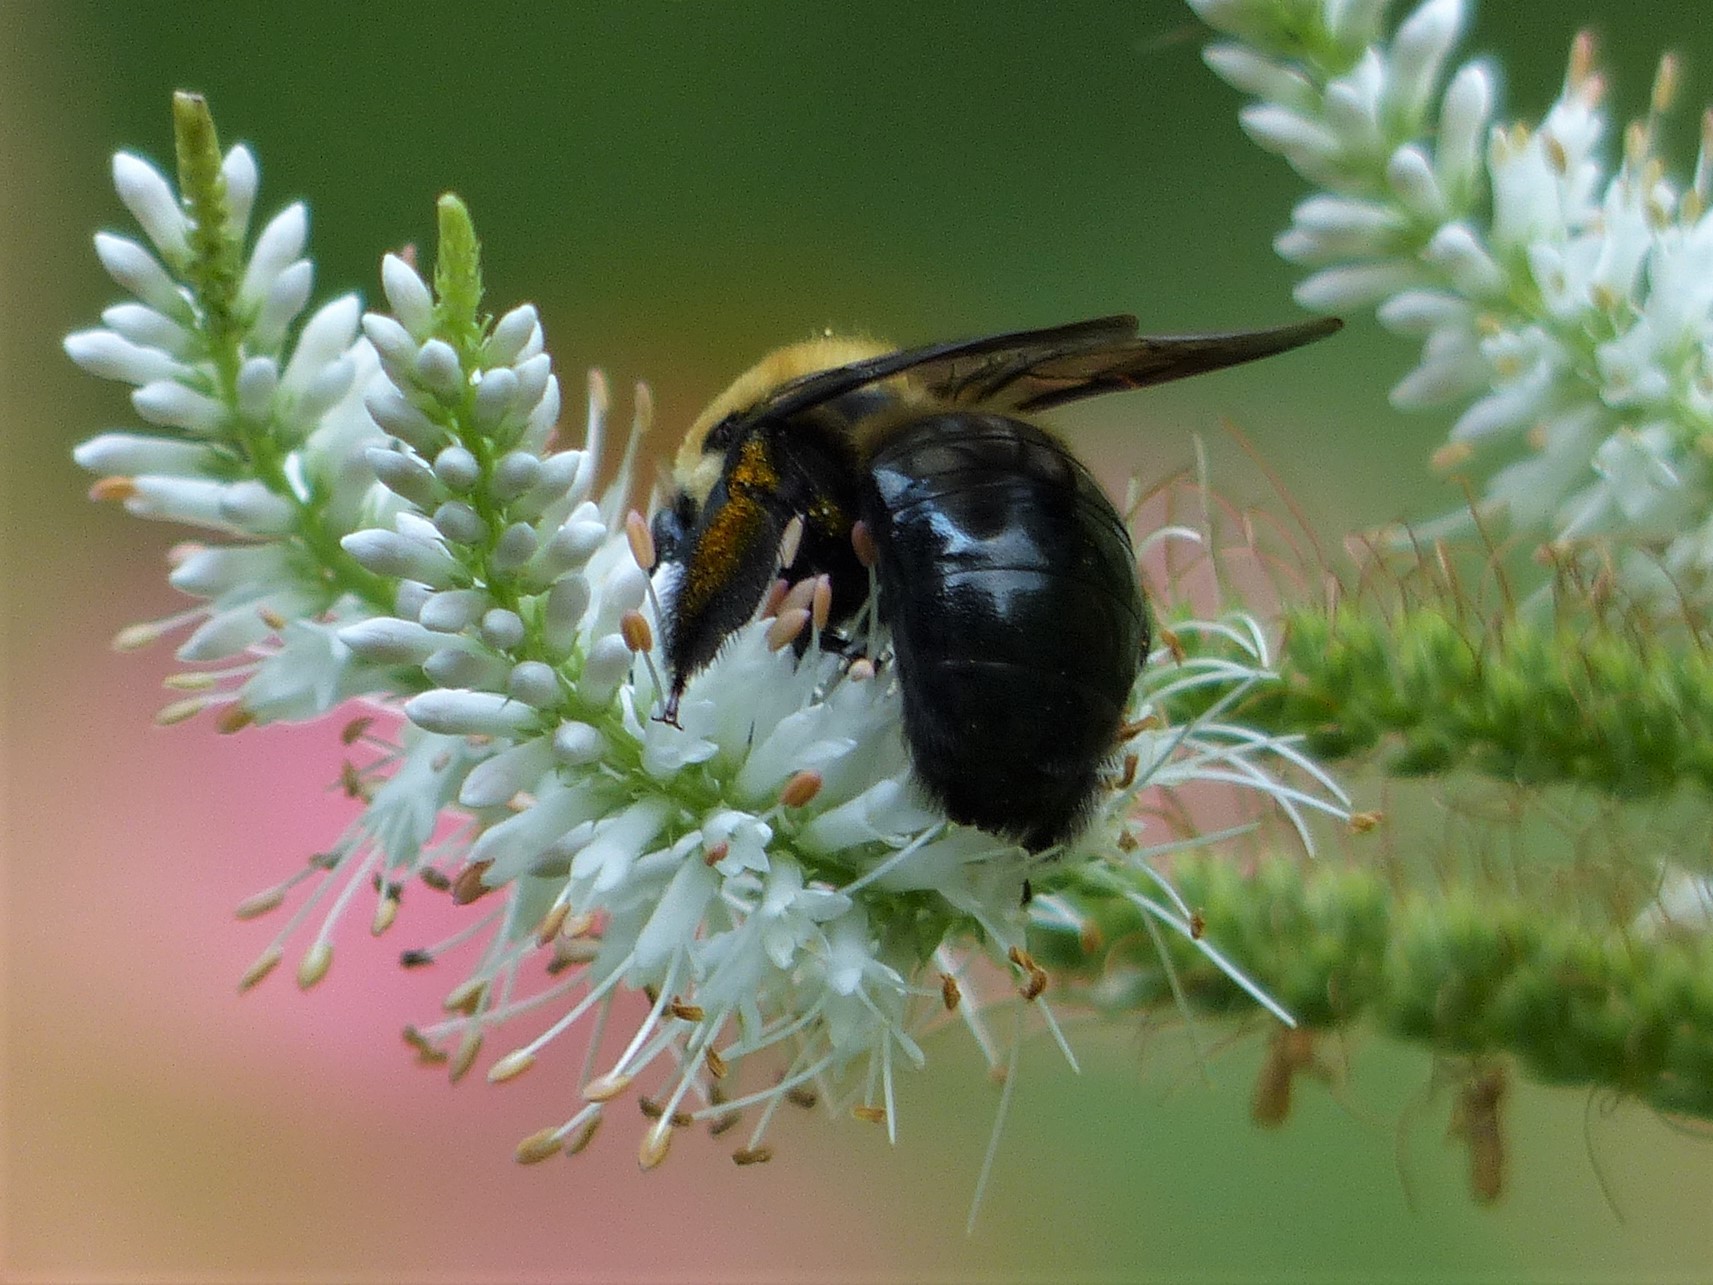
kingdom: Animalia
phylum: Arthropoda
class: Insecta
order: Hymenoptera
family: Apidae
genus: Xylocopa
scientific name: Xylocopa virginica
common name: Carpenter bee
